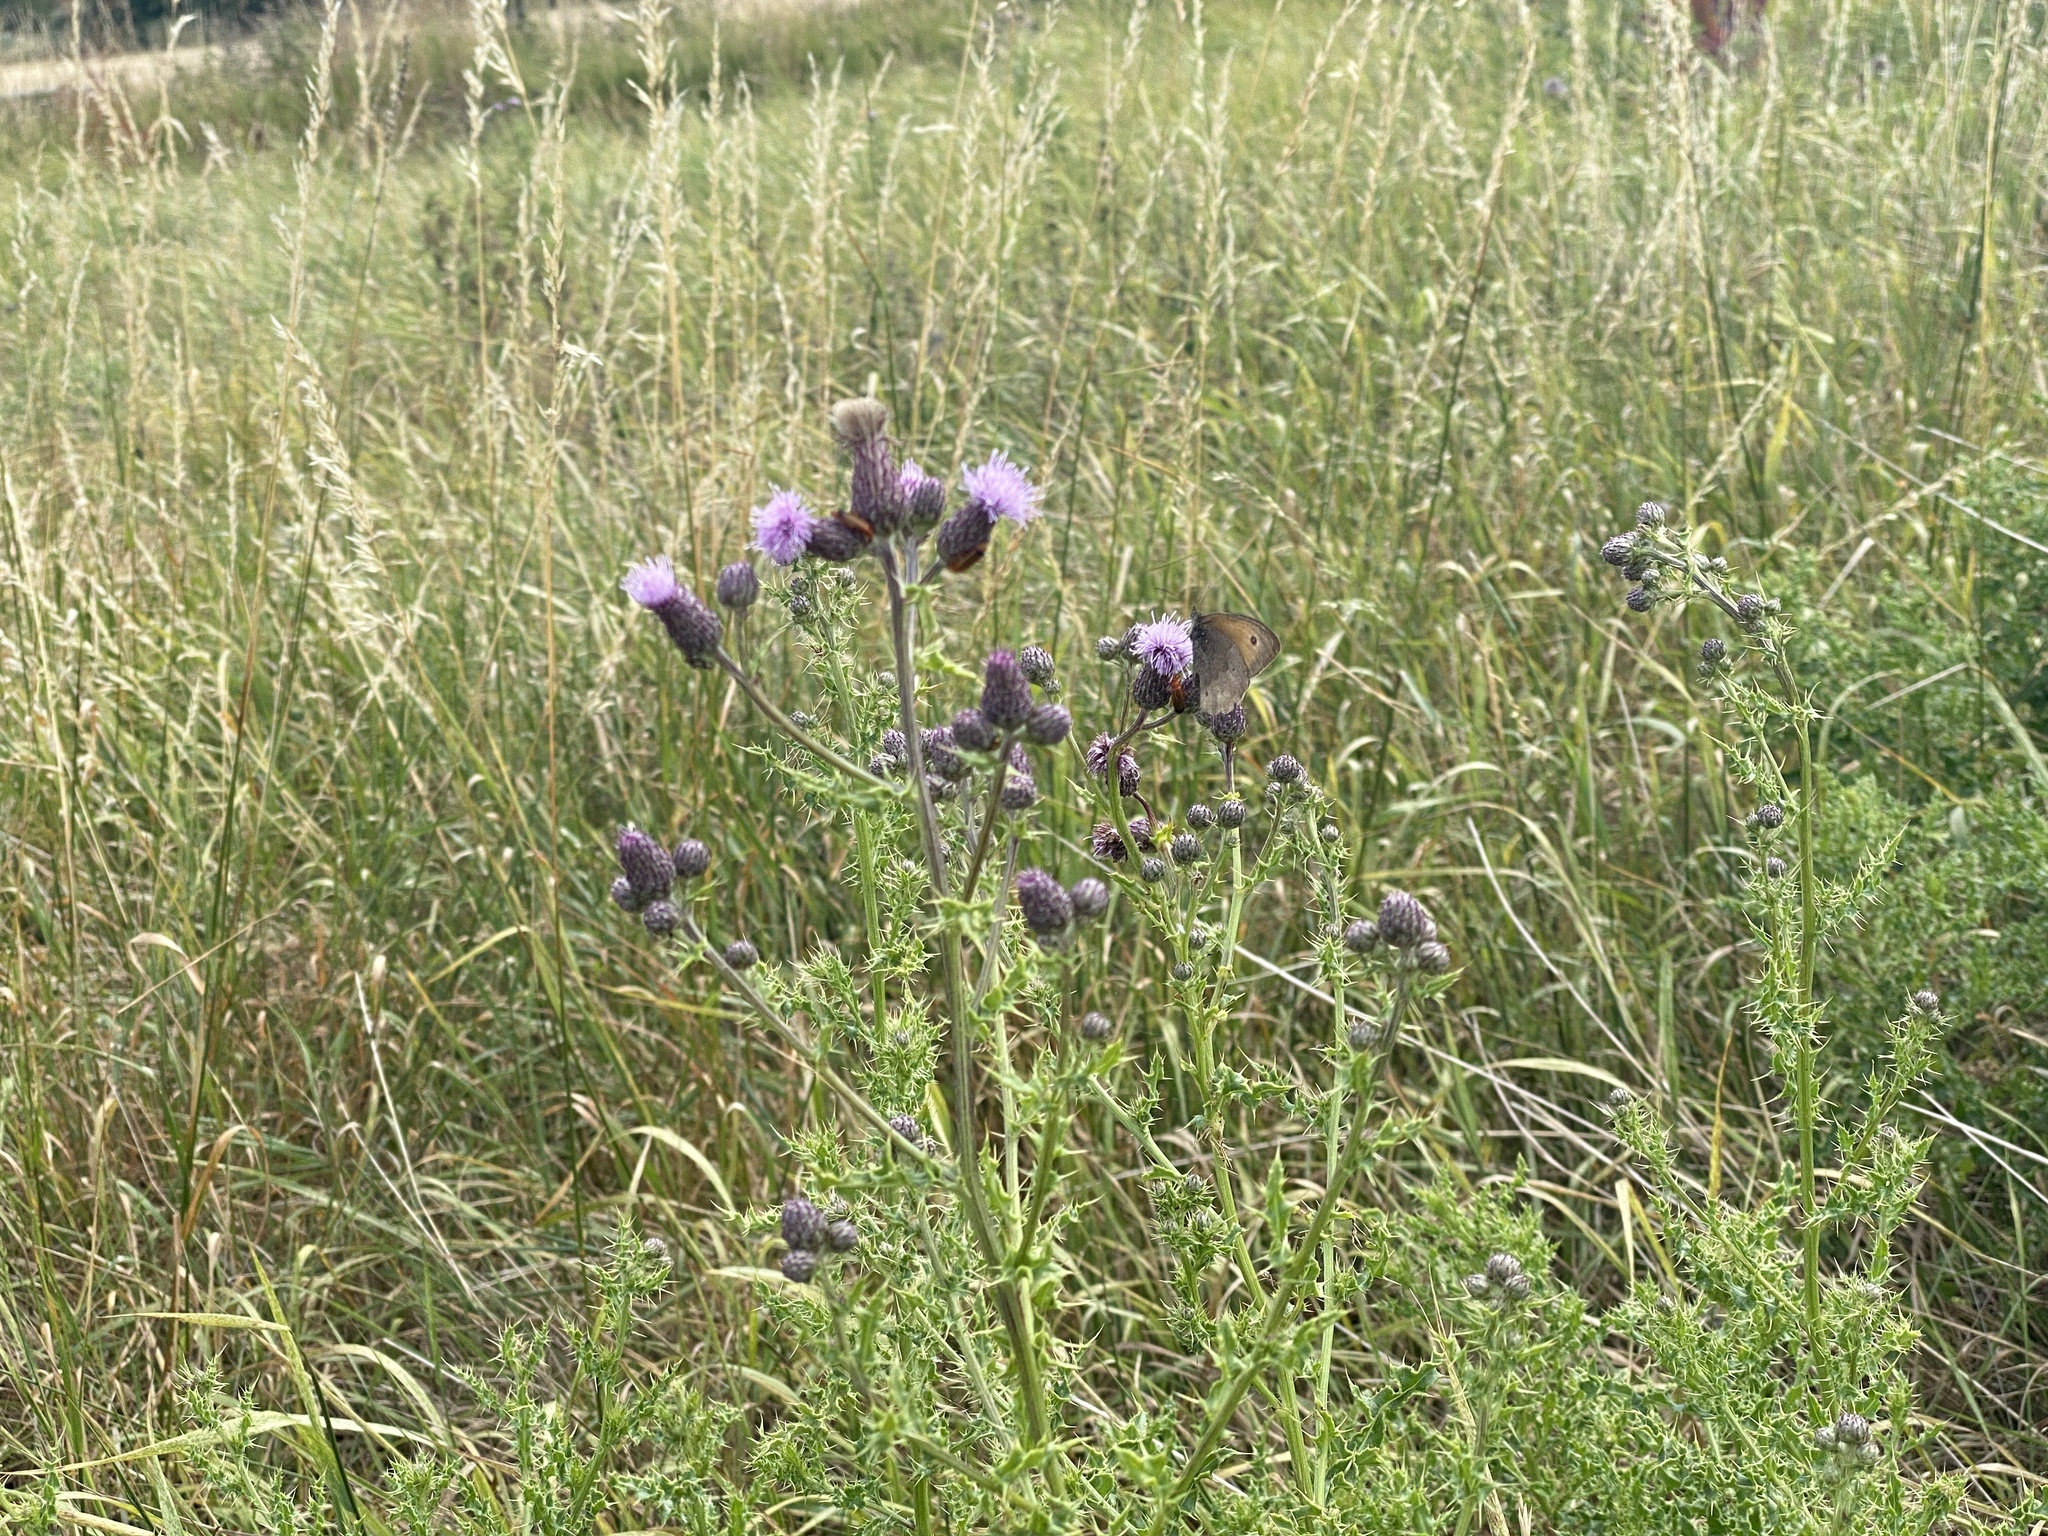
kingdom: Animalia
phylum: Arthropoda
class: Insecta
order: Lepidoptera
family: Nymphalidae
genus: Maniola
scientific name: Maniola jurtina
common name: Meadow brown
